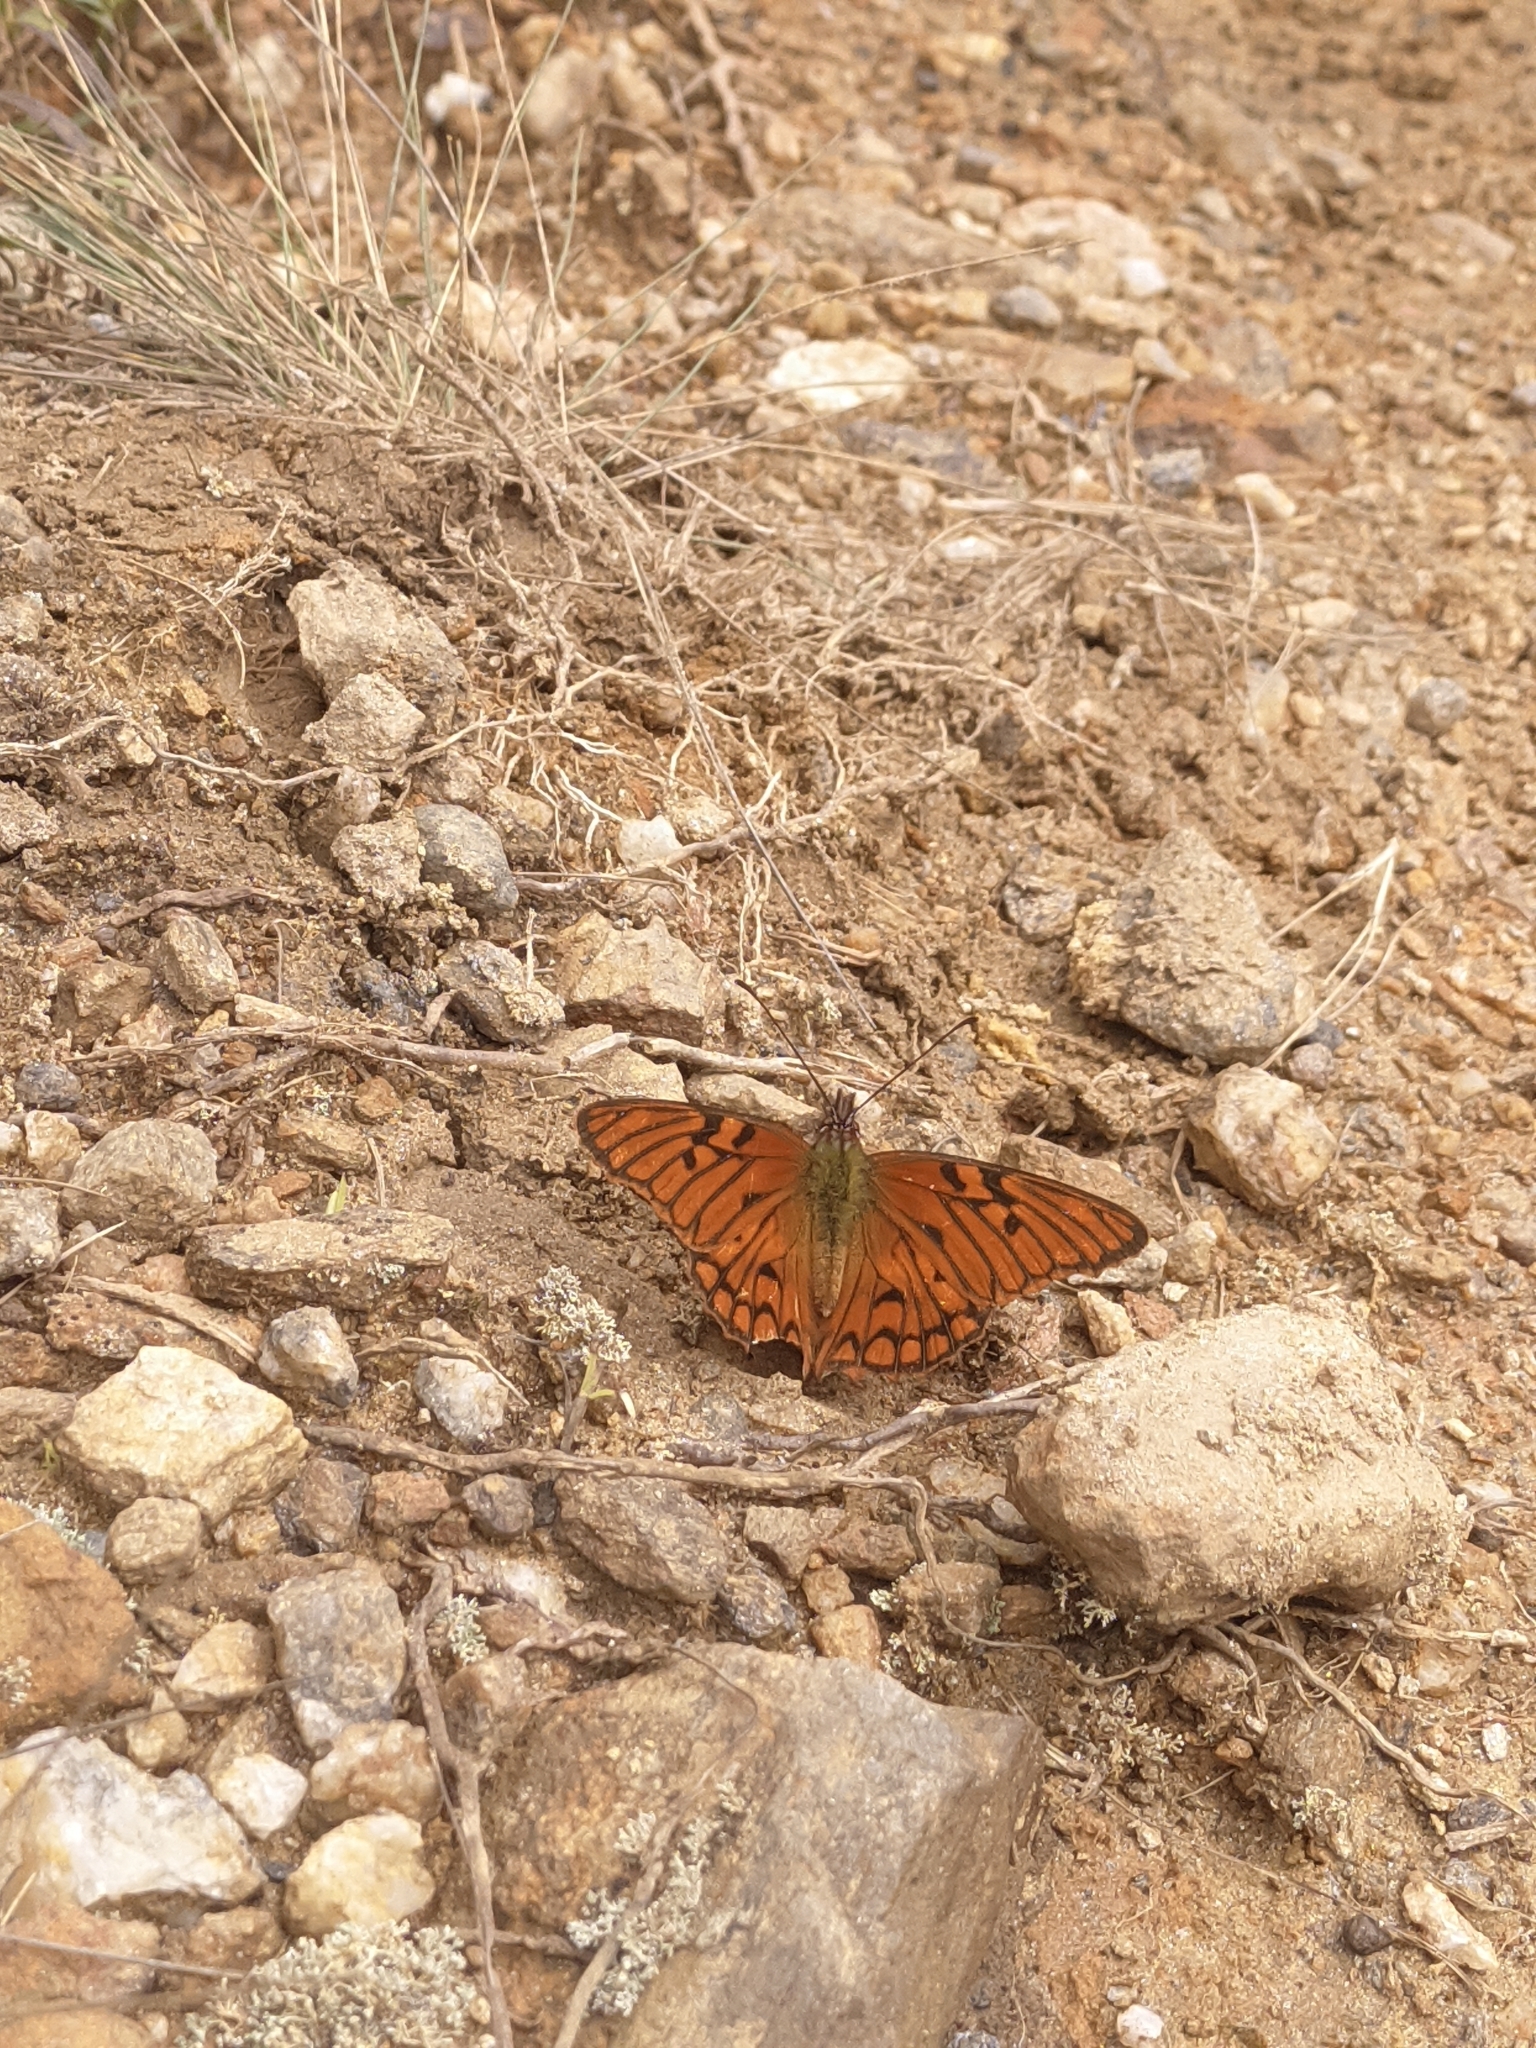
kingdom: Animalia
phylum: Arthropoda
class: Insecta
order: Lepidoptera
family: Nymphalidae
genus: Dione
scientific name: Dione glycera
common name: Andean silverspot
